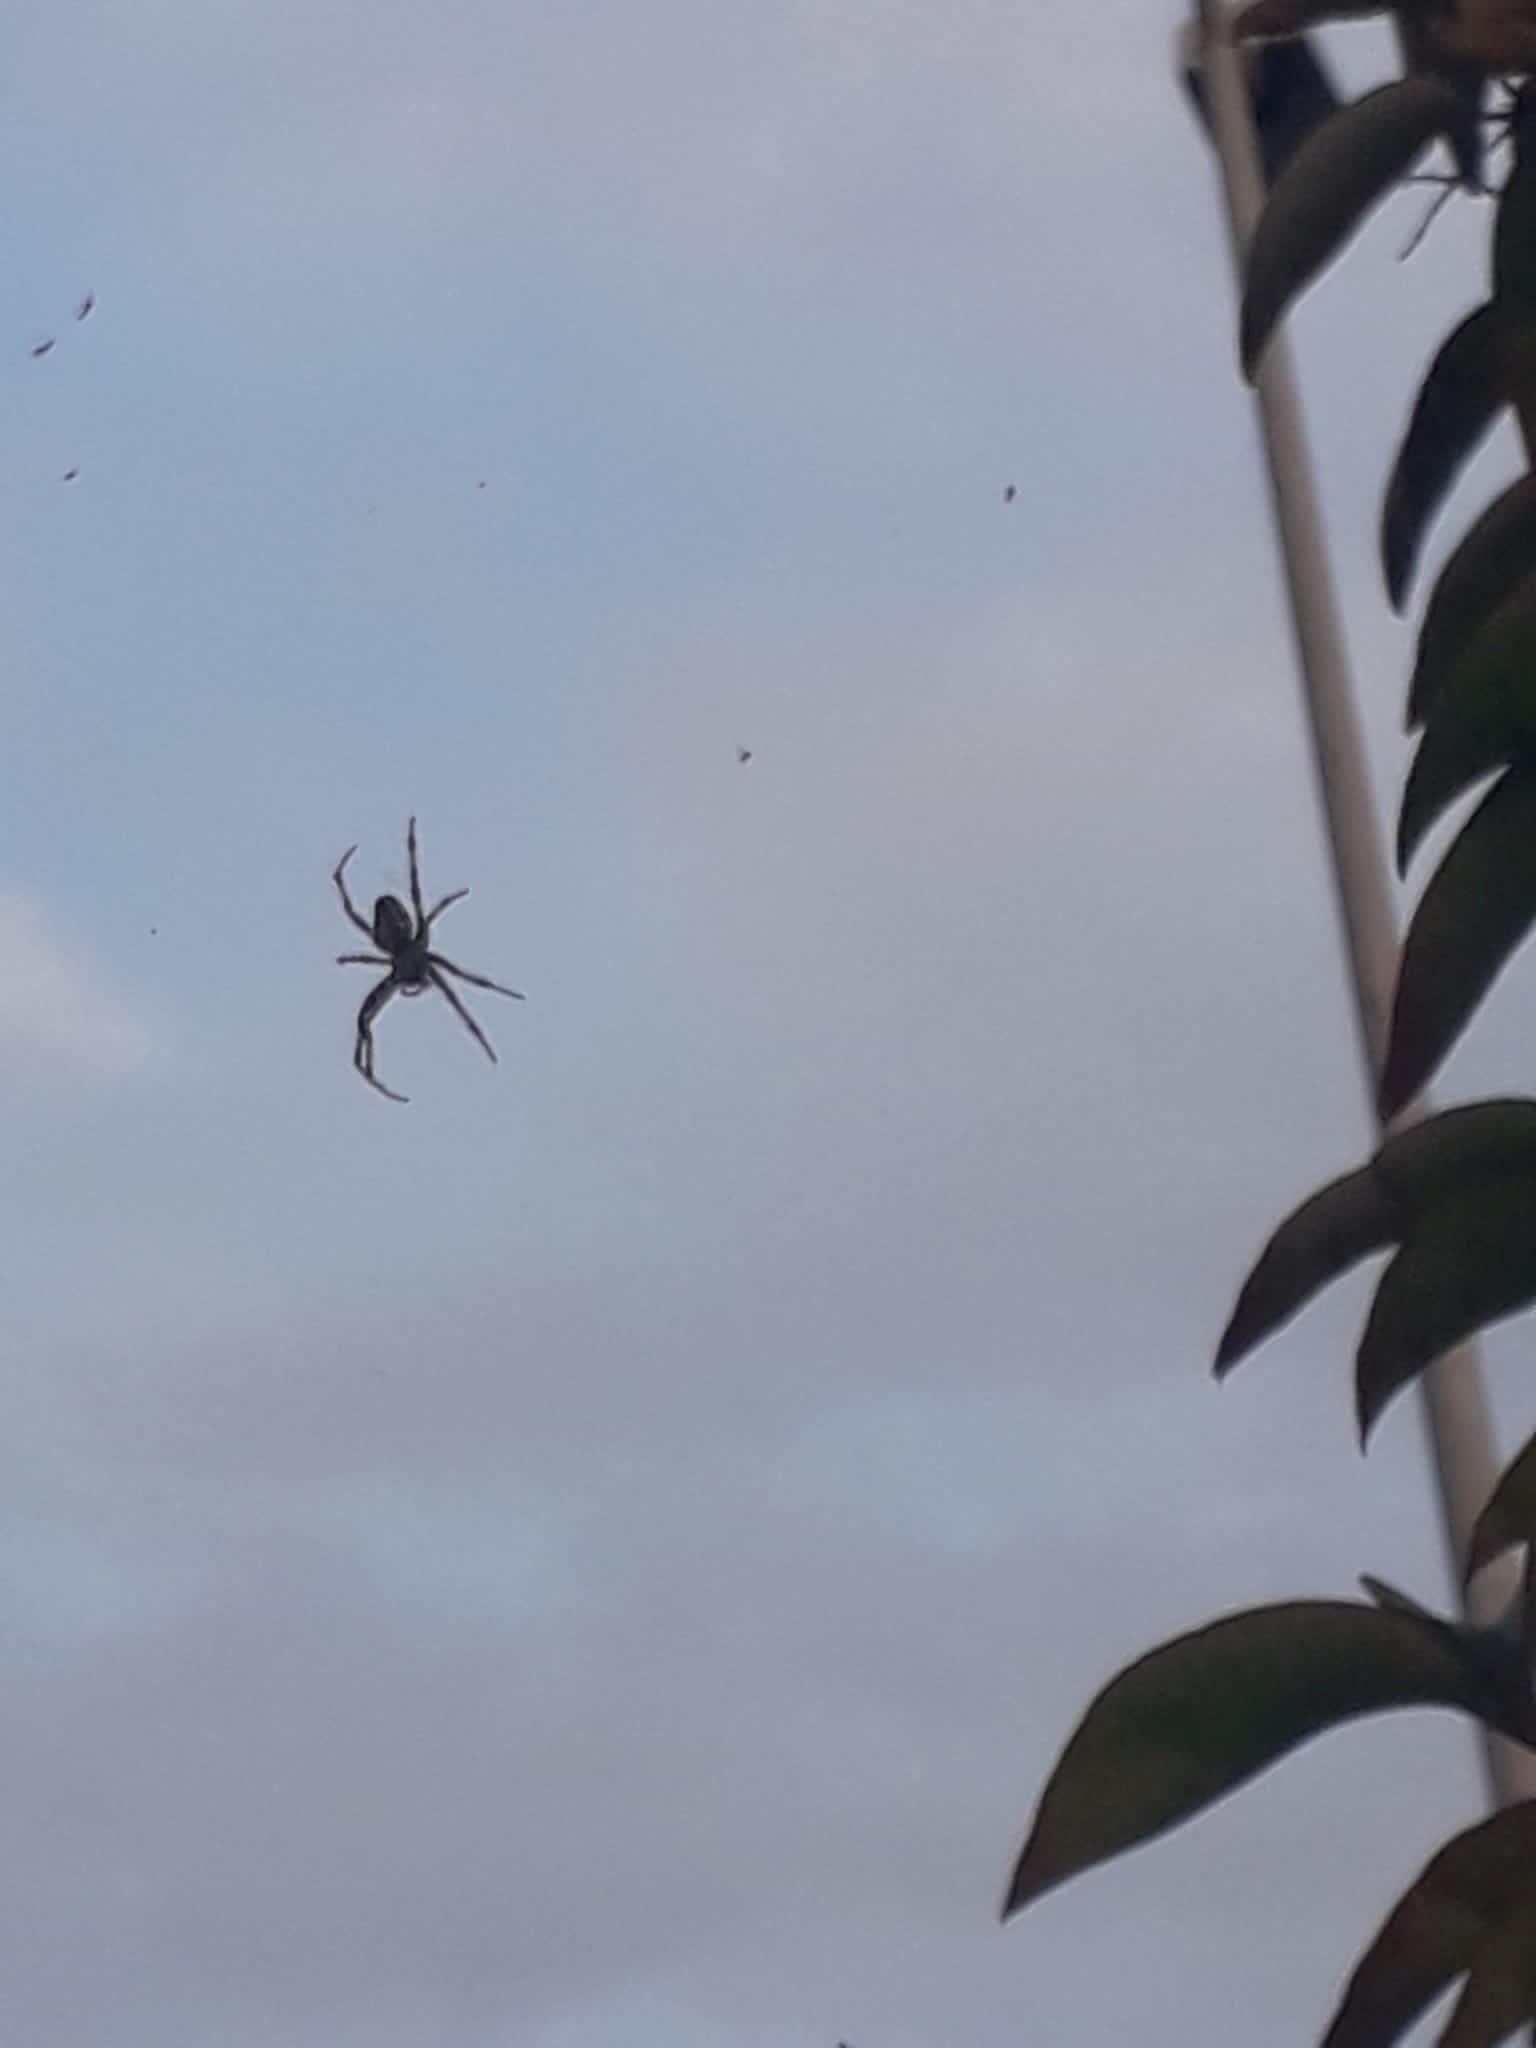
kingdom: Animalia
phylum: Arthropoda
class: Arachnida
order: Araneae
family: Araneidae
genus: Araneus
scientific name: Araneus diadematus
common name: Cross orbweaver
